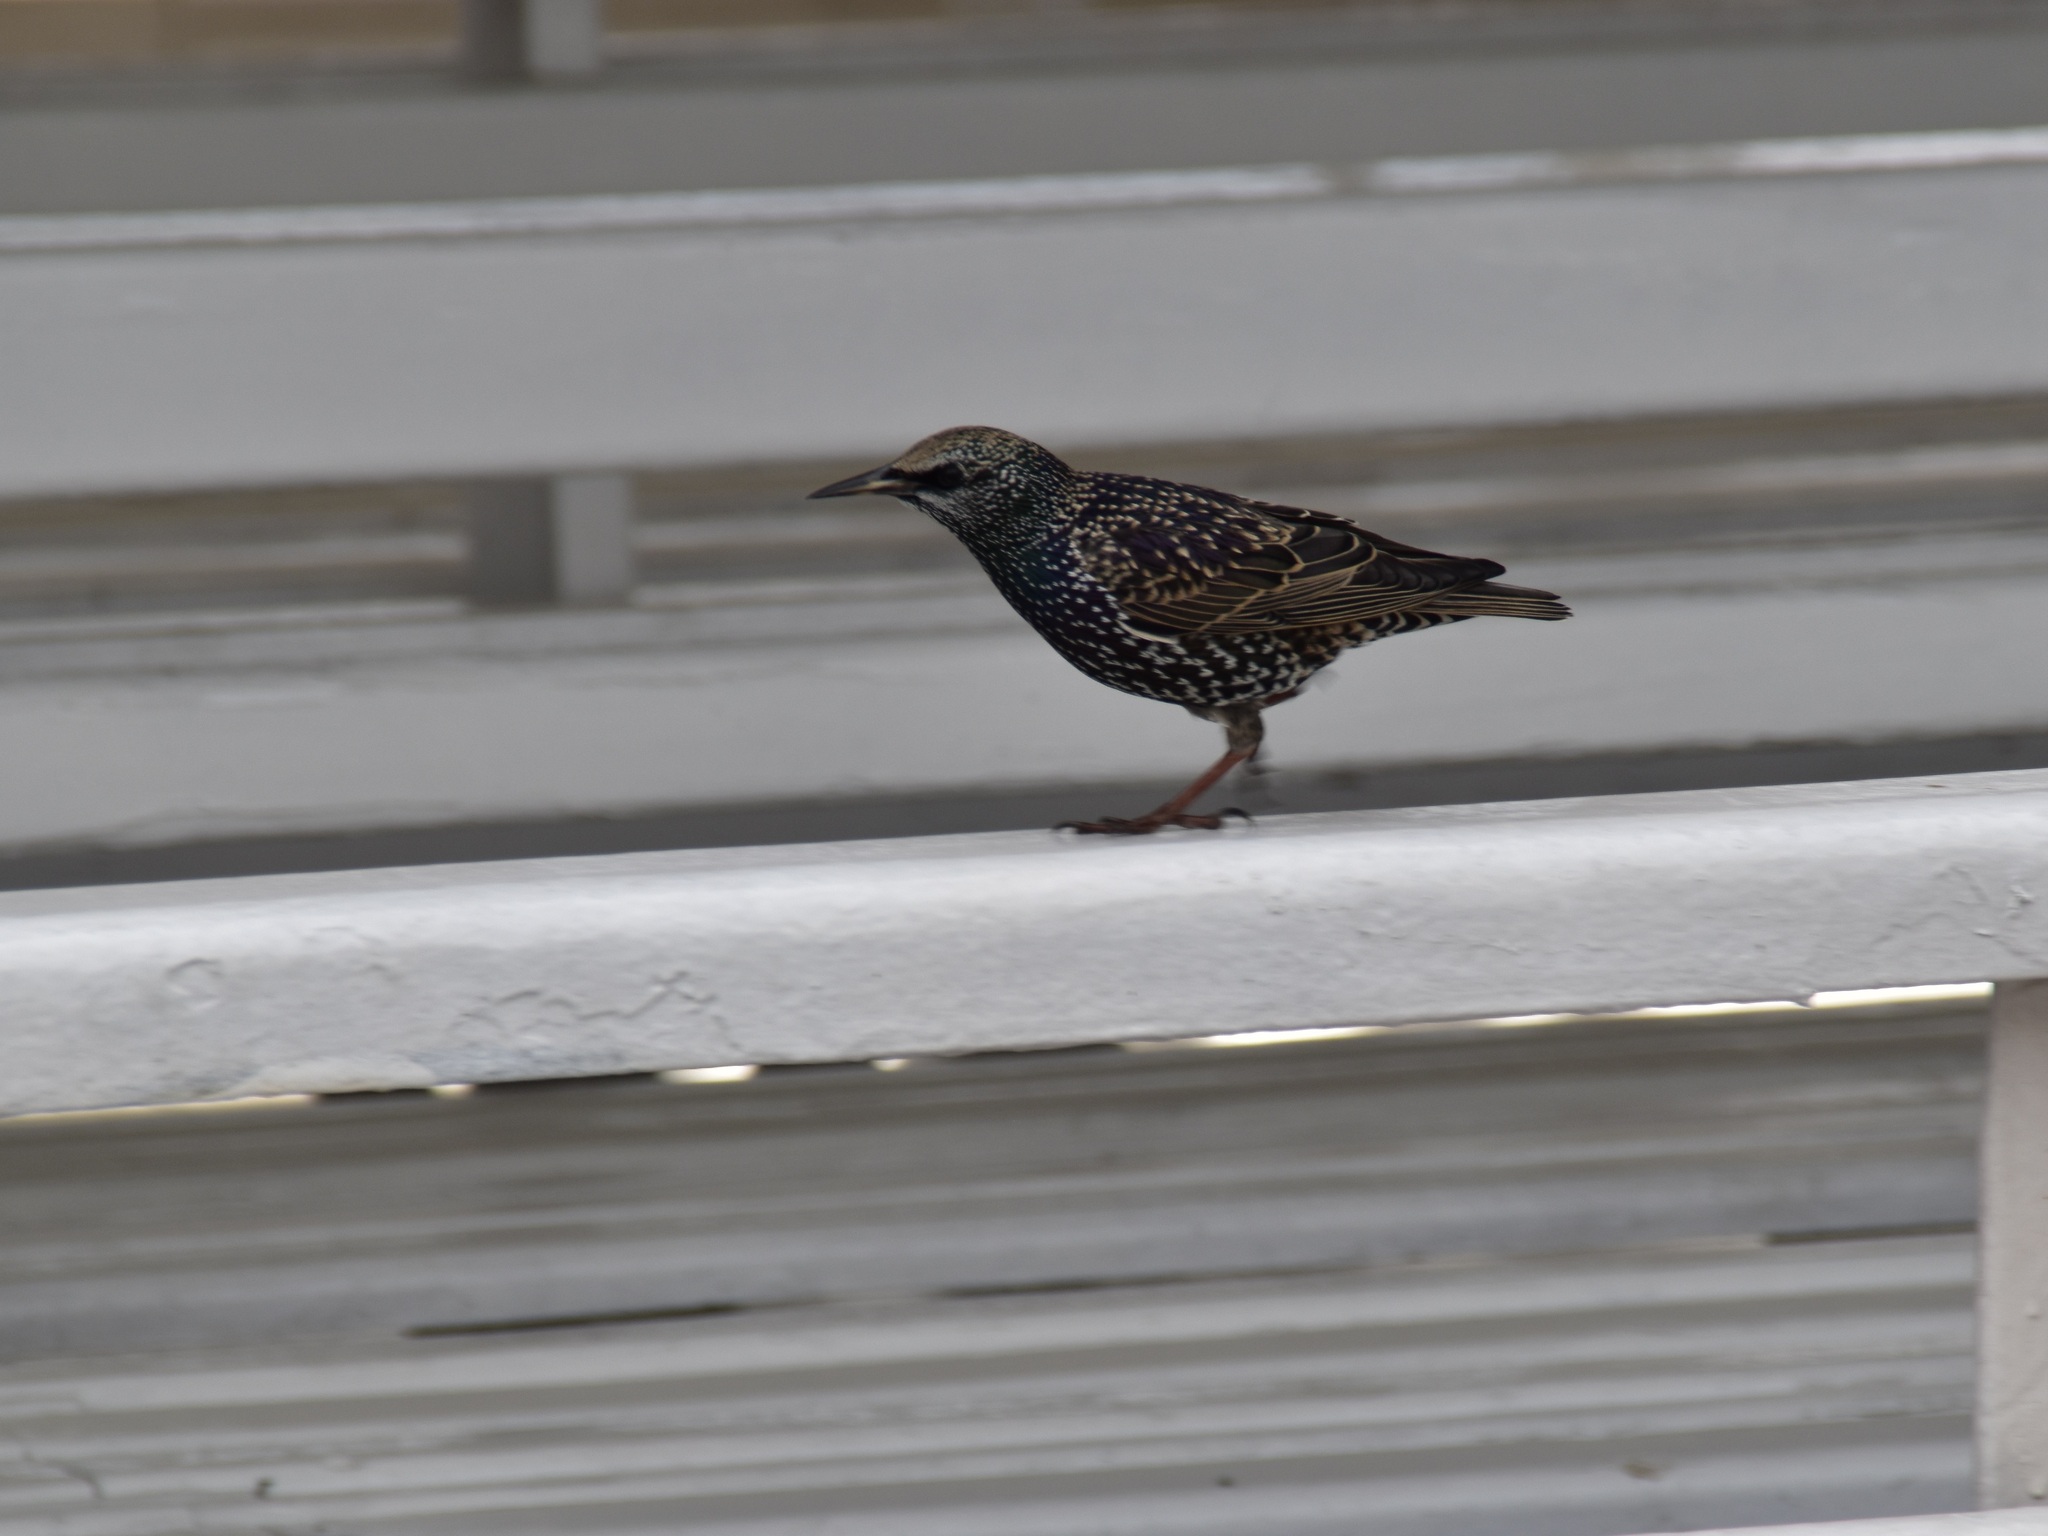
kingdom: Animalia
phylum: Chordata
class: Aves
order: Passeriformes
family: Sturnidae
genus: Sturnus
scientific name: Sturnus vulgaris
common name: Common starling
